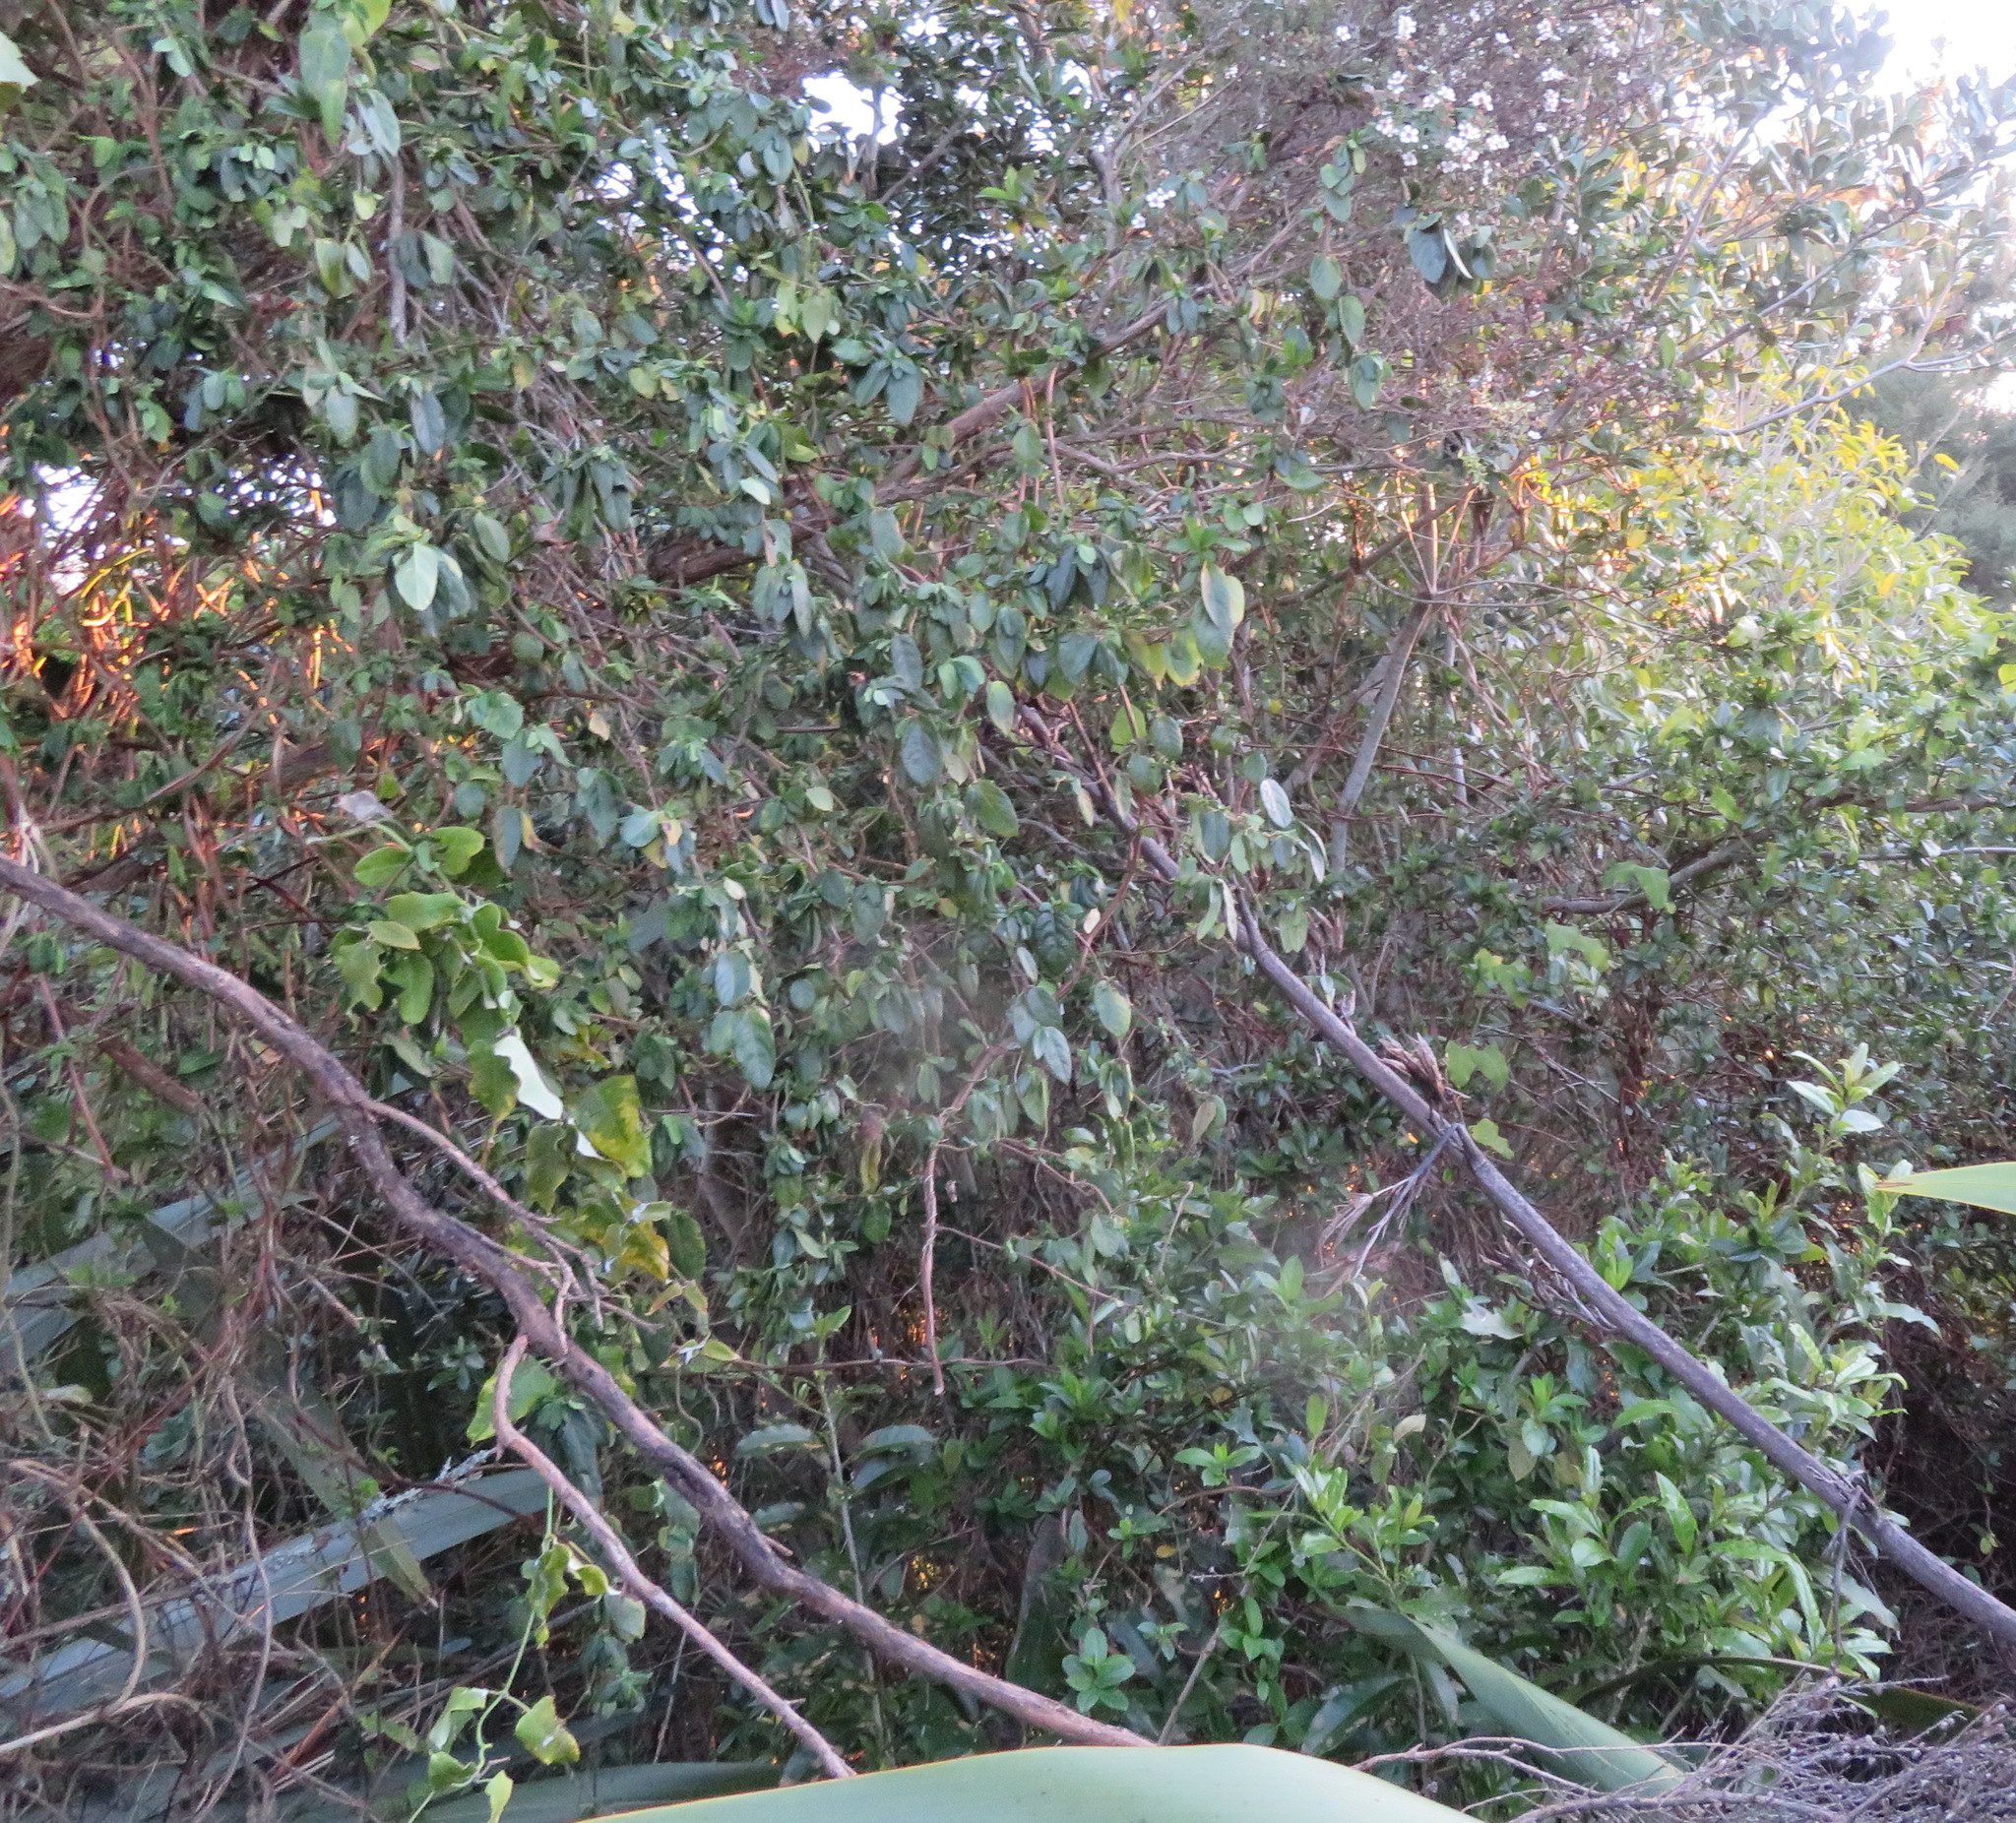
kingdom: Plantae
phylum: Tracheophyta
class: Magnoliopsida
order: Gentianales
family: Apocynaceae
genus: Araujia
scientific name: Araujia sericifera
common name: White bladderflower
